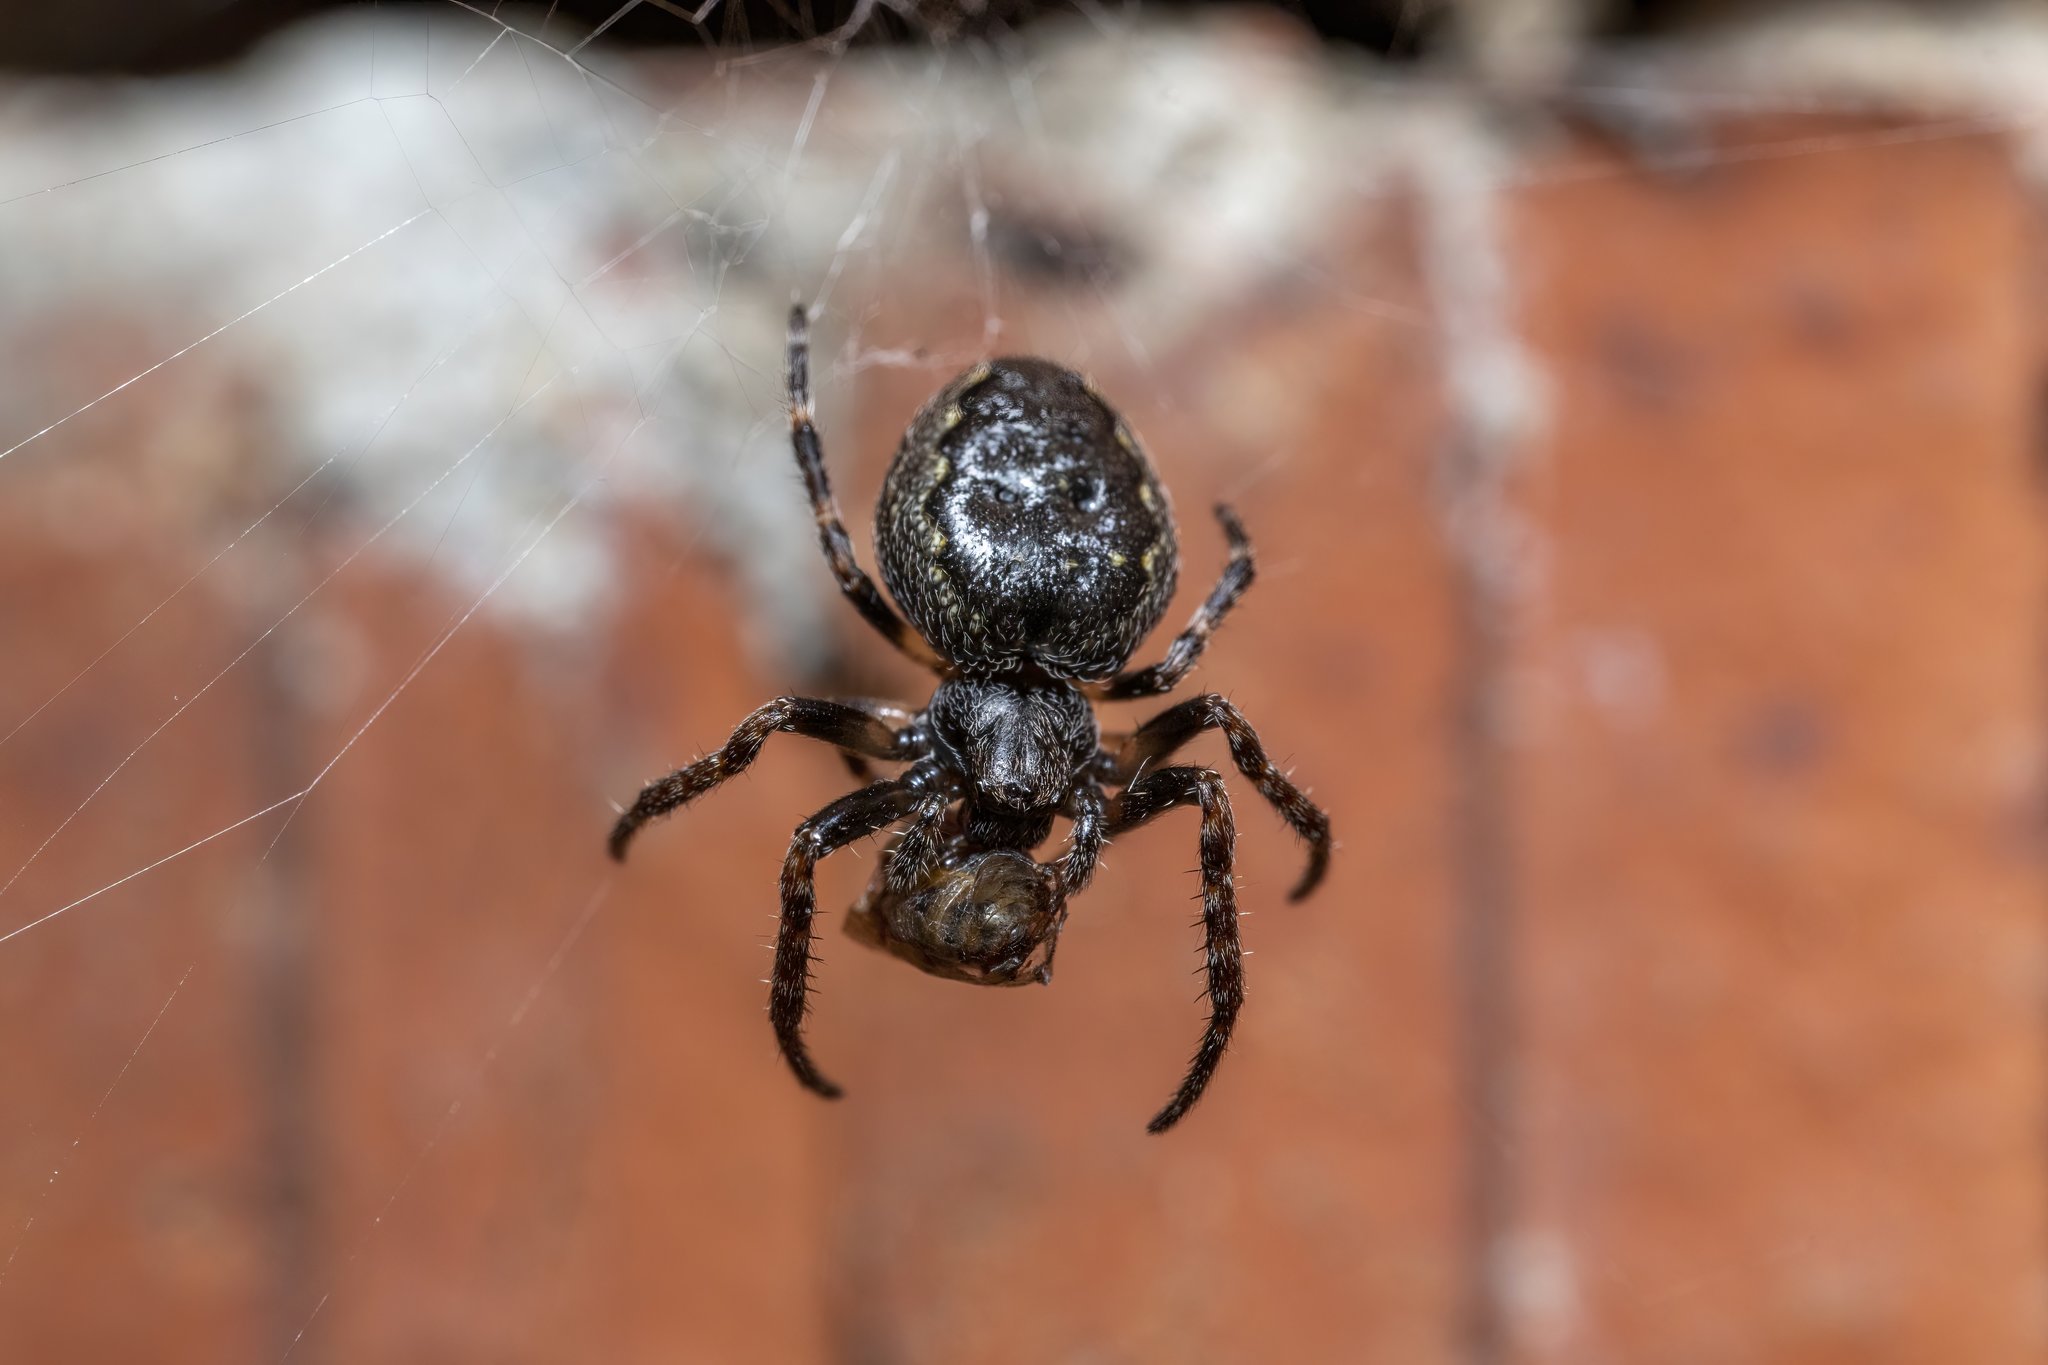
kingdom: Animalia
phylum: Arthropoda
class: Arachnida
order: Araneae
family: Araneidae
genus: Nuctenea
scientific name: Nuctenea umbratica
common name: Toad spider
